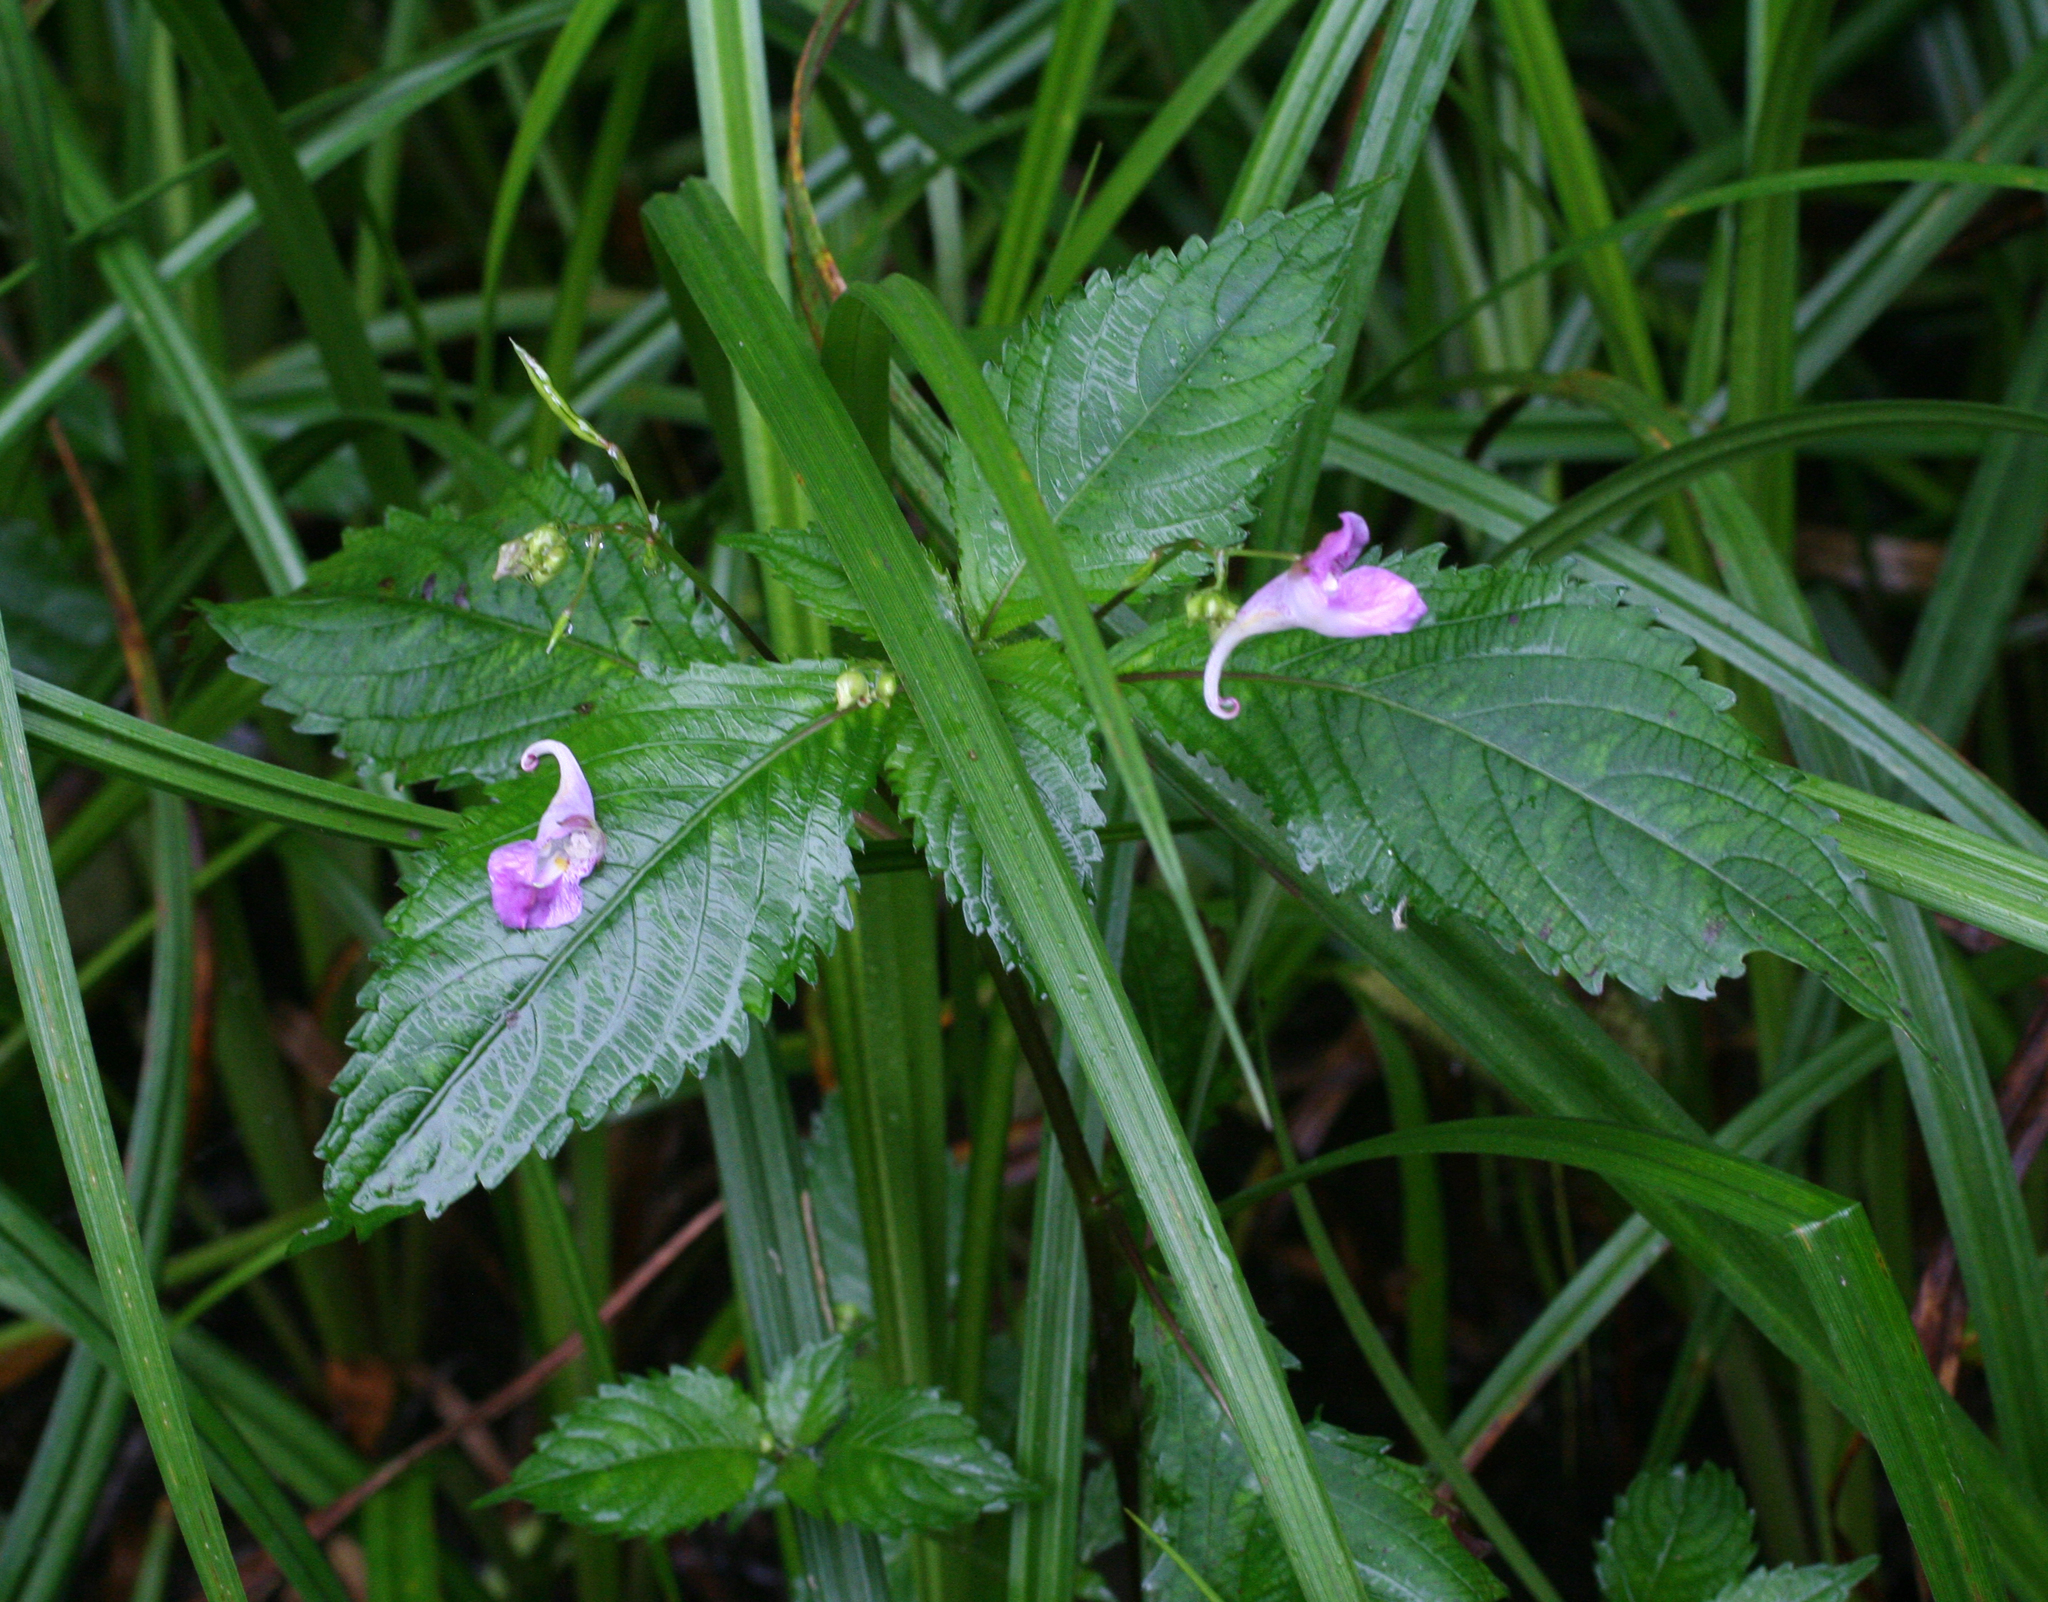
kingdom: Plantae
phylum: Tracheophyta
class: Magnoliopsida
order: Ericales
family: Balsaminaceae
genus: Impatiens
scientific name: Impatiens furcillata
